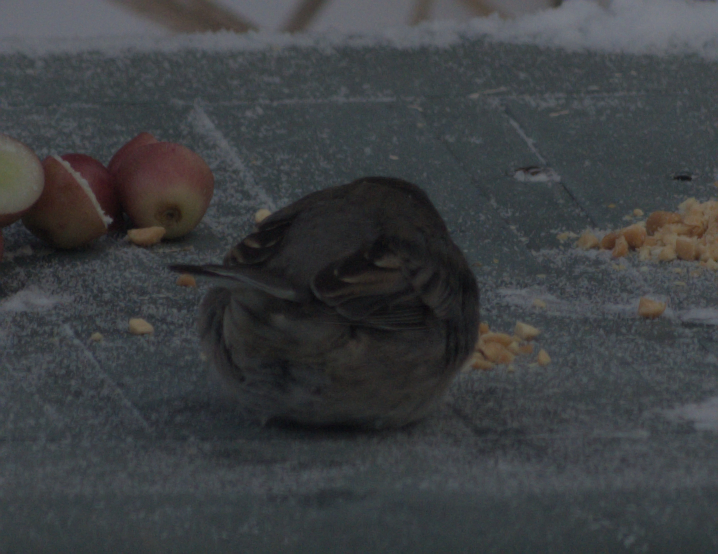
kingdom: Animalia
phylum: Chordata
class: Aves
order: Passeriformes
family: Passerellidae
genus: Junco
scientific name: Junco hyemalis
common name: Dark-eyed junco
